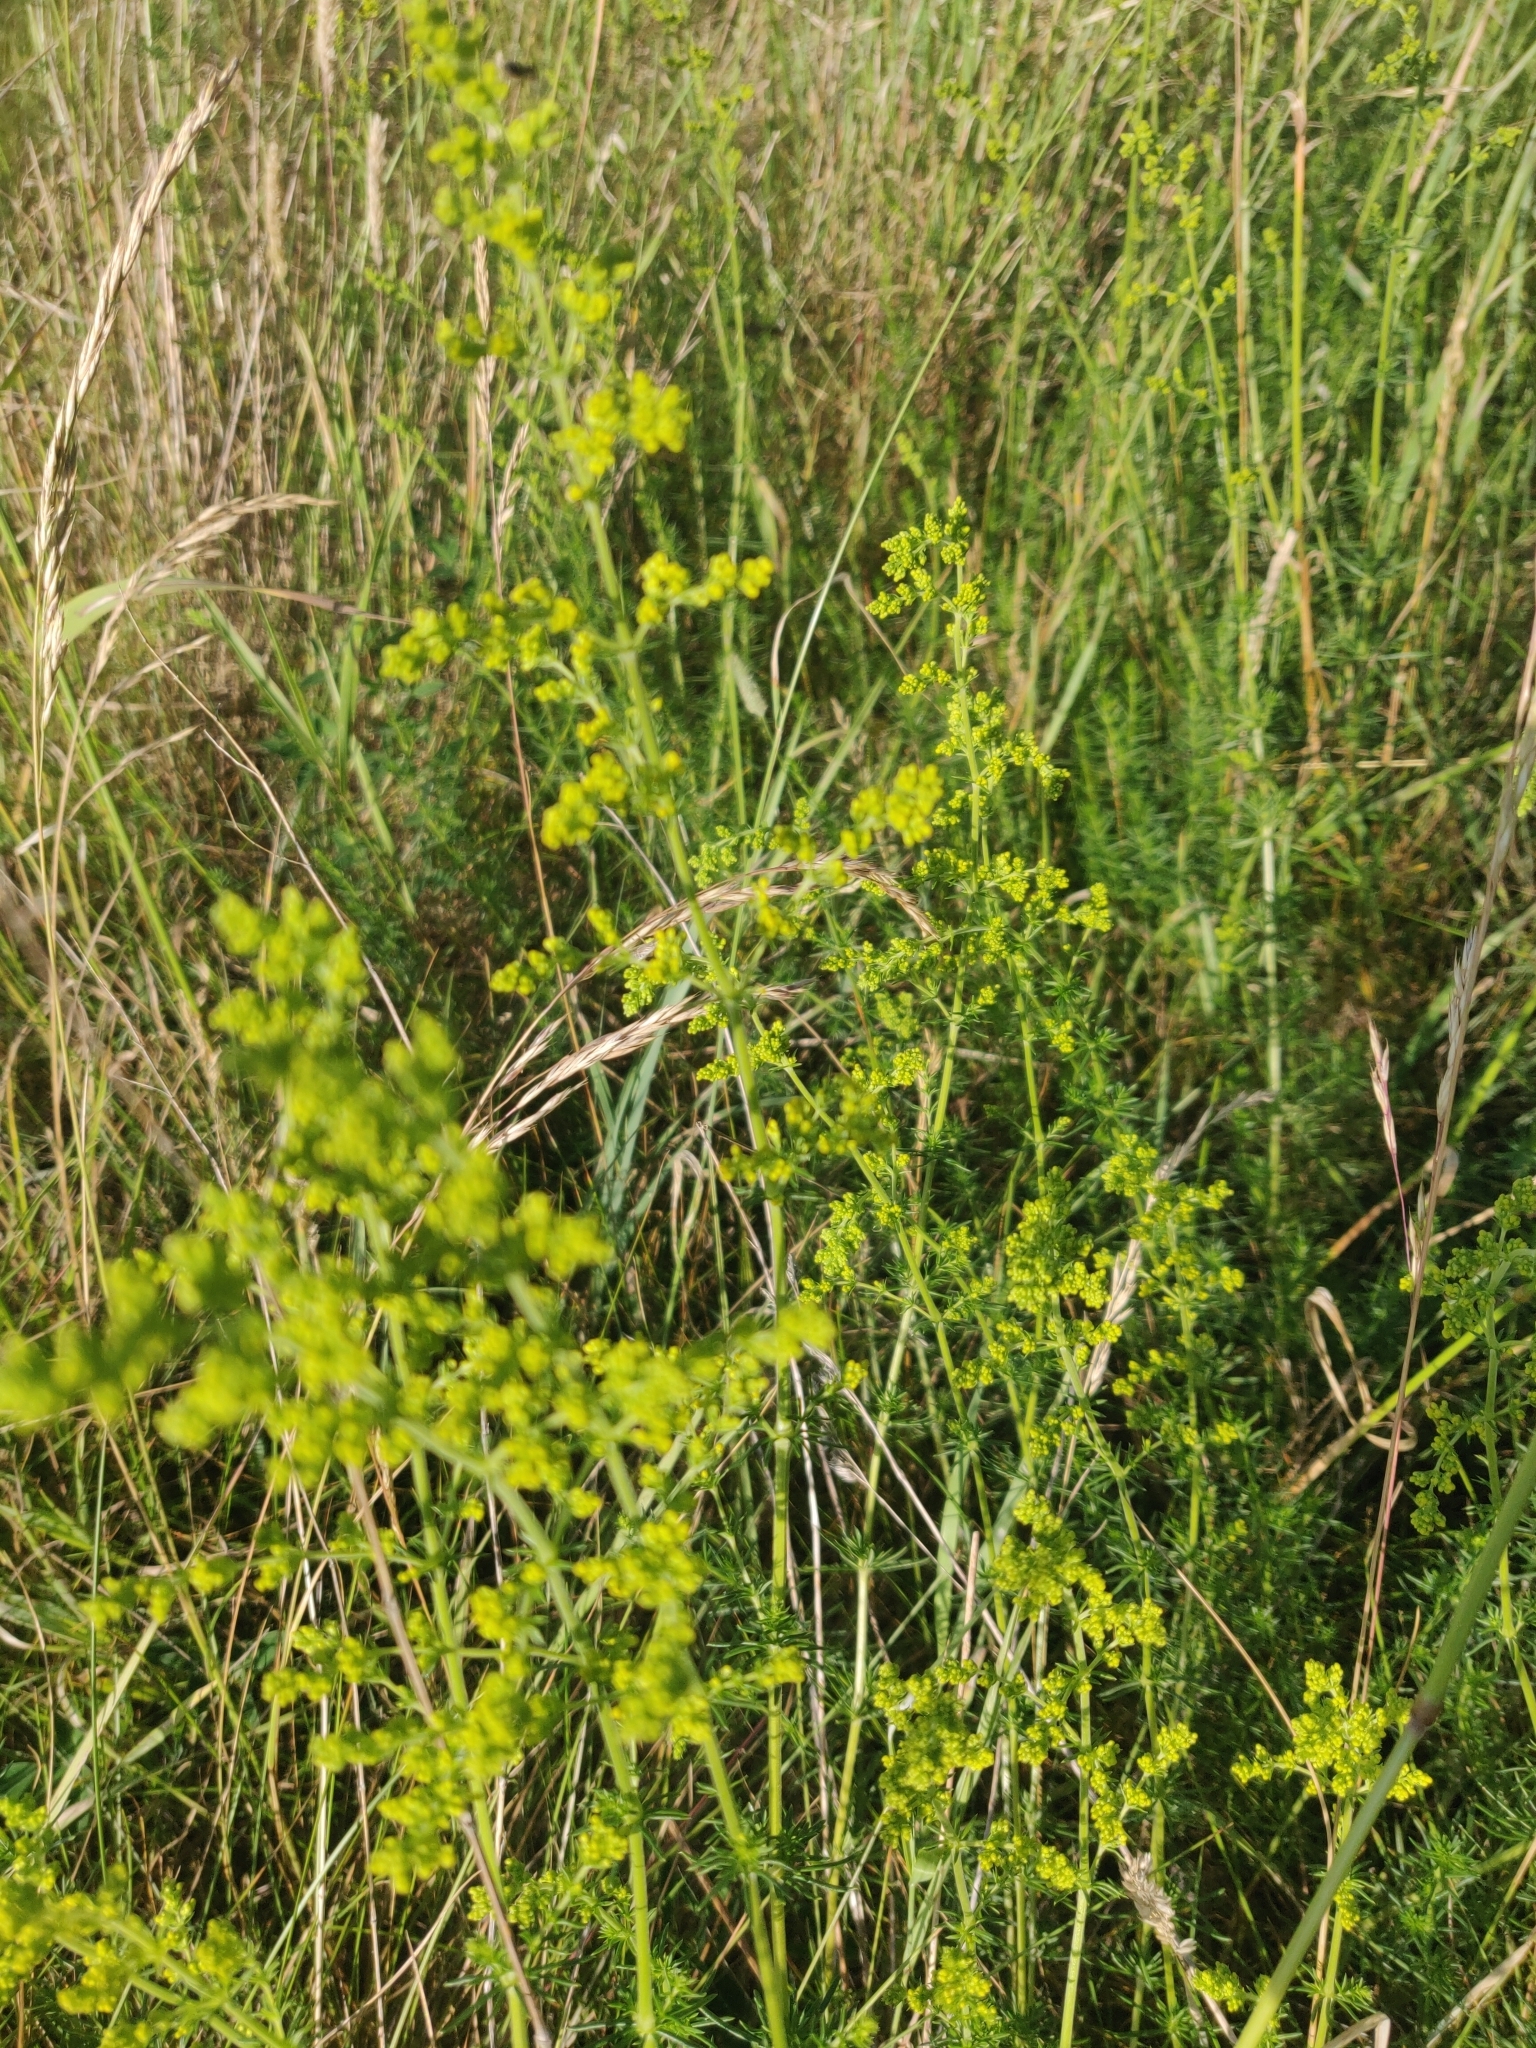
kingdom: Plantae
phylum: Tracheophyta
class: Magnoliopsida
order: Gentianales
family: Rubiaceae
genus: Galium
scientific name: Galium verum
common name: Lady's bedstraw
